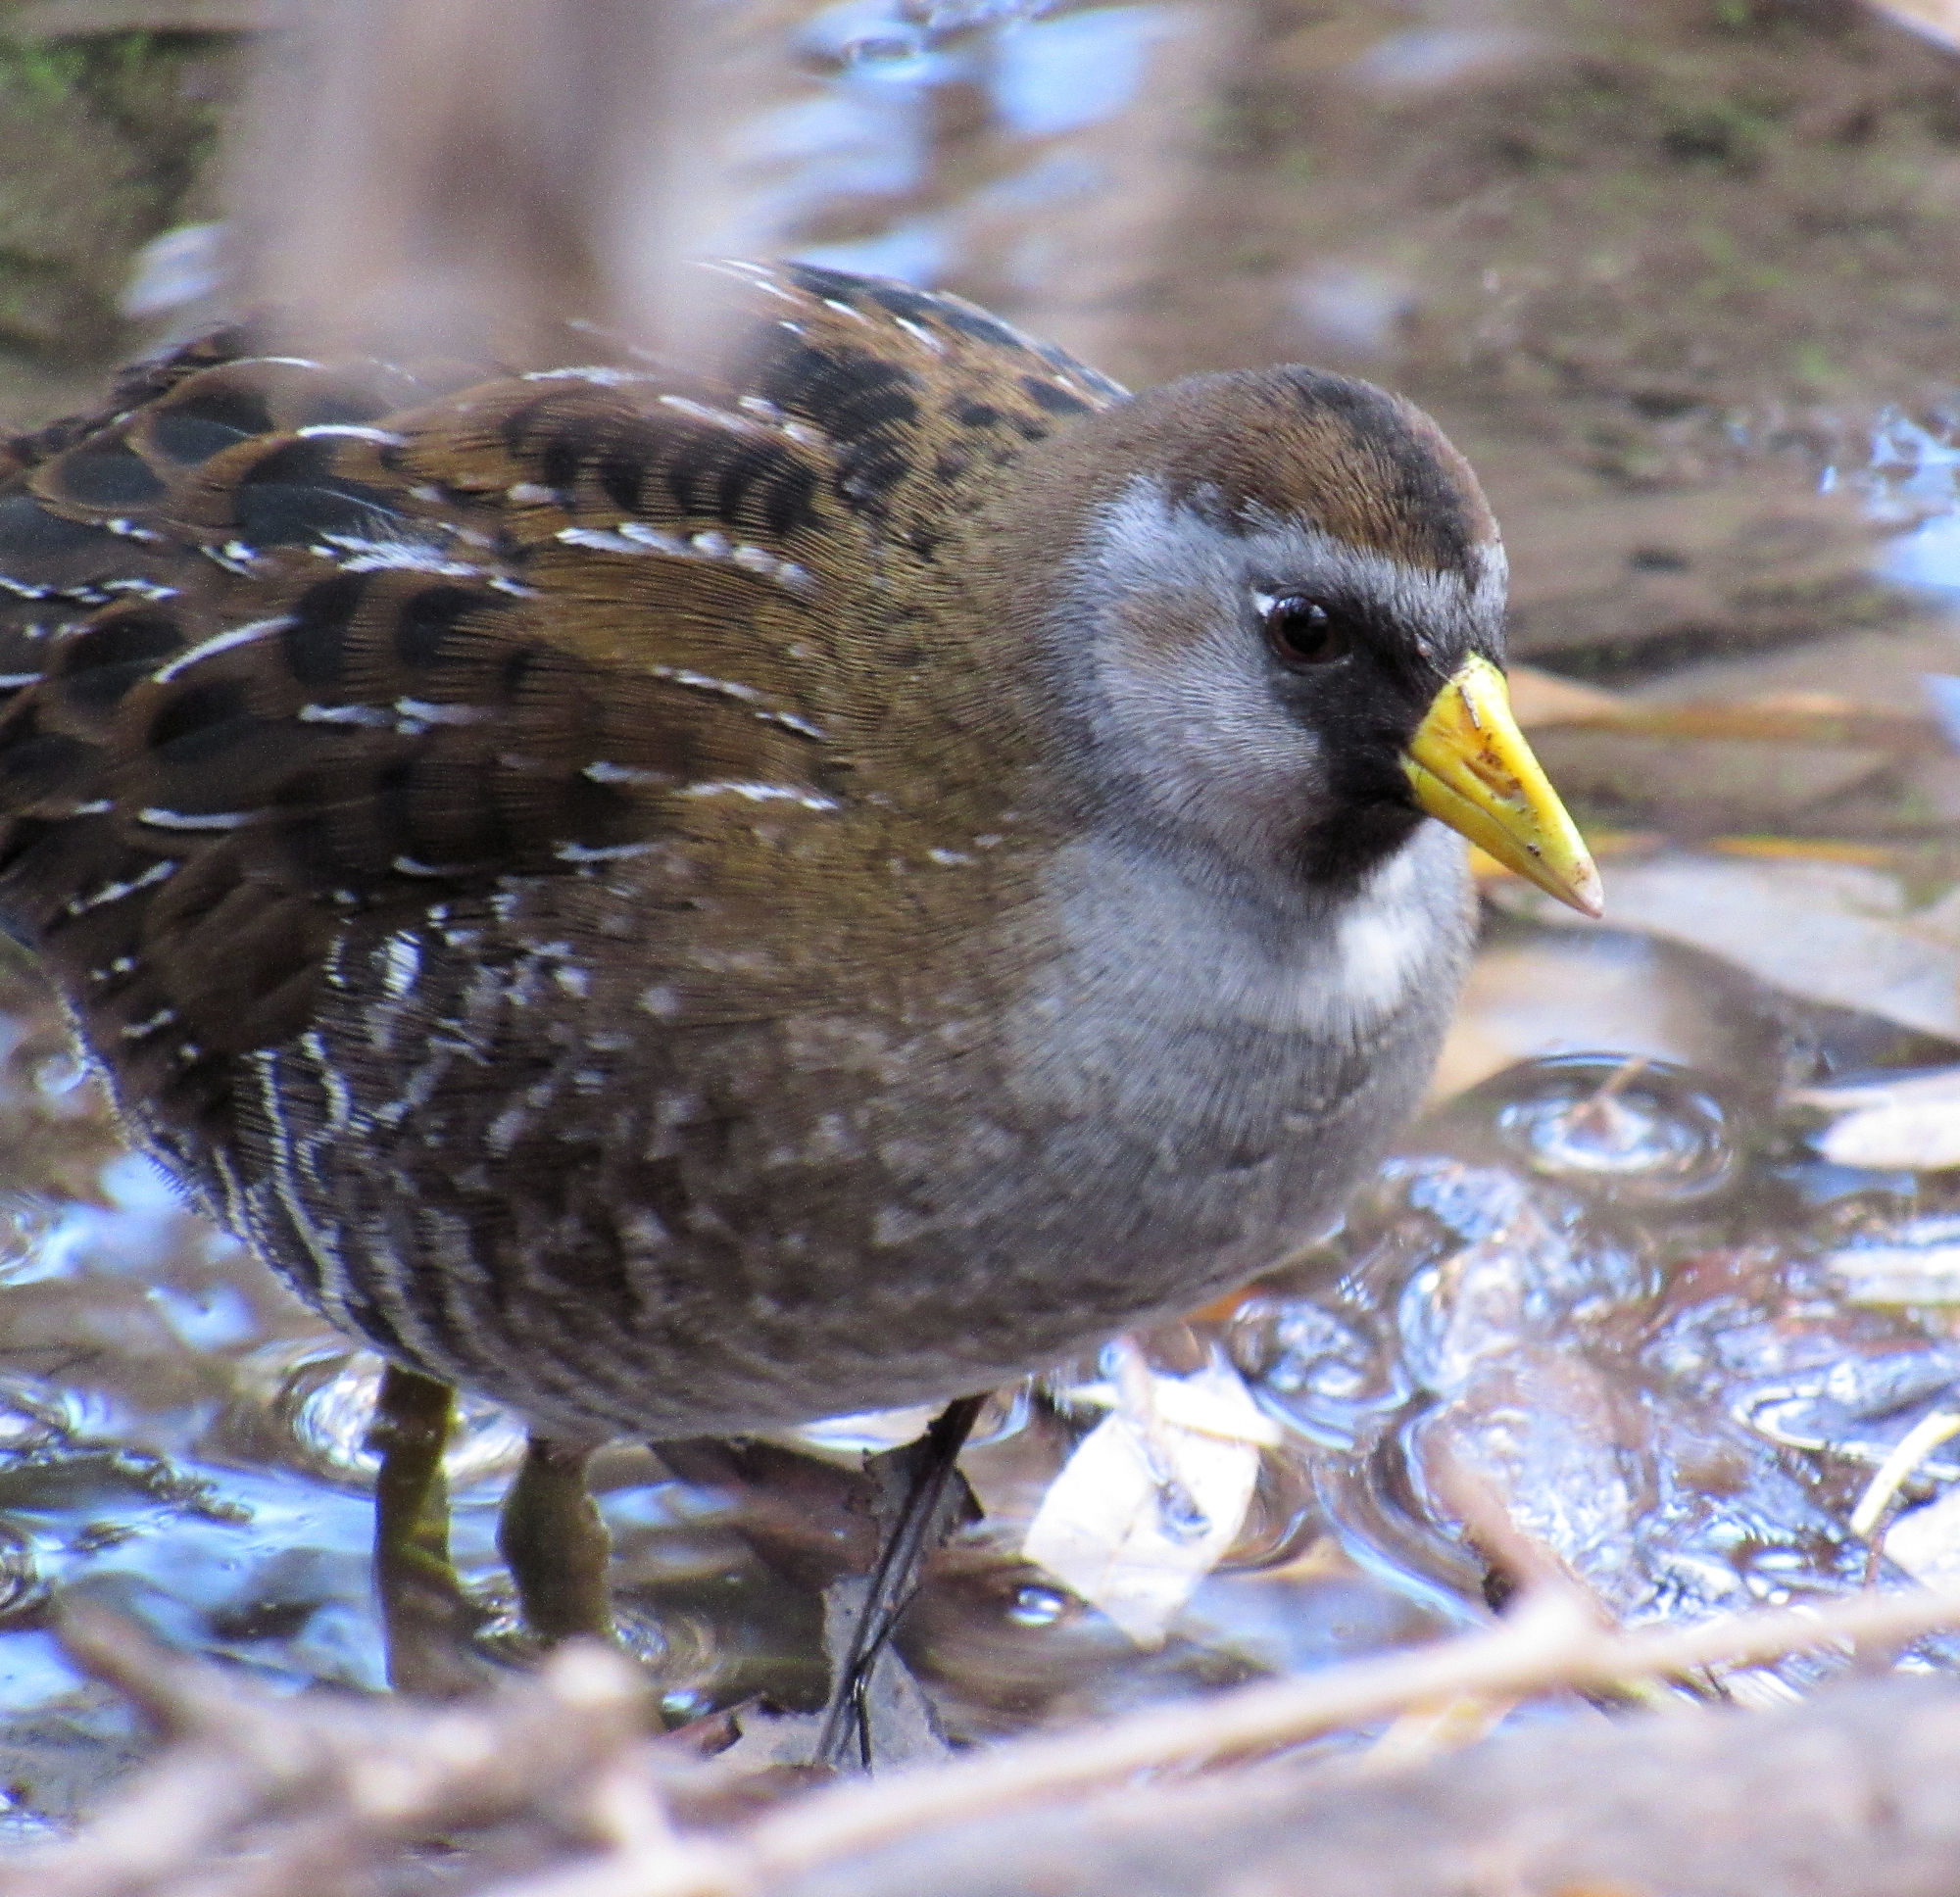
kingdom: Animalia
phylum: Chordata
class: Aves
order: Gruiformes
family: Rallidae
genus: Porzana
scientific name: Porzana carolina
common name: Sora
